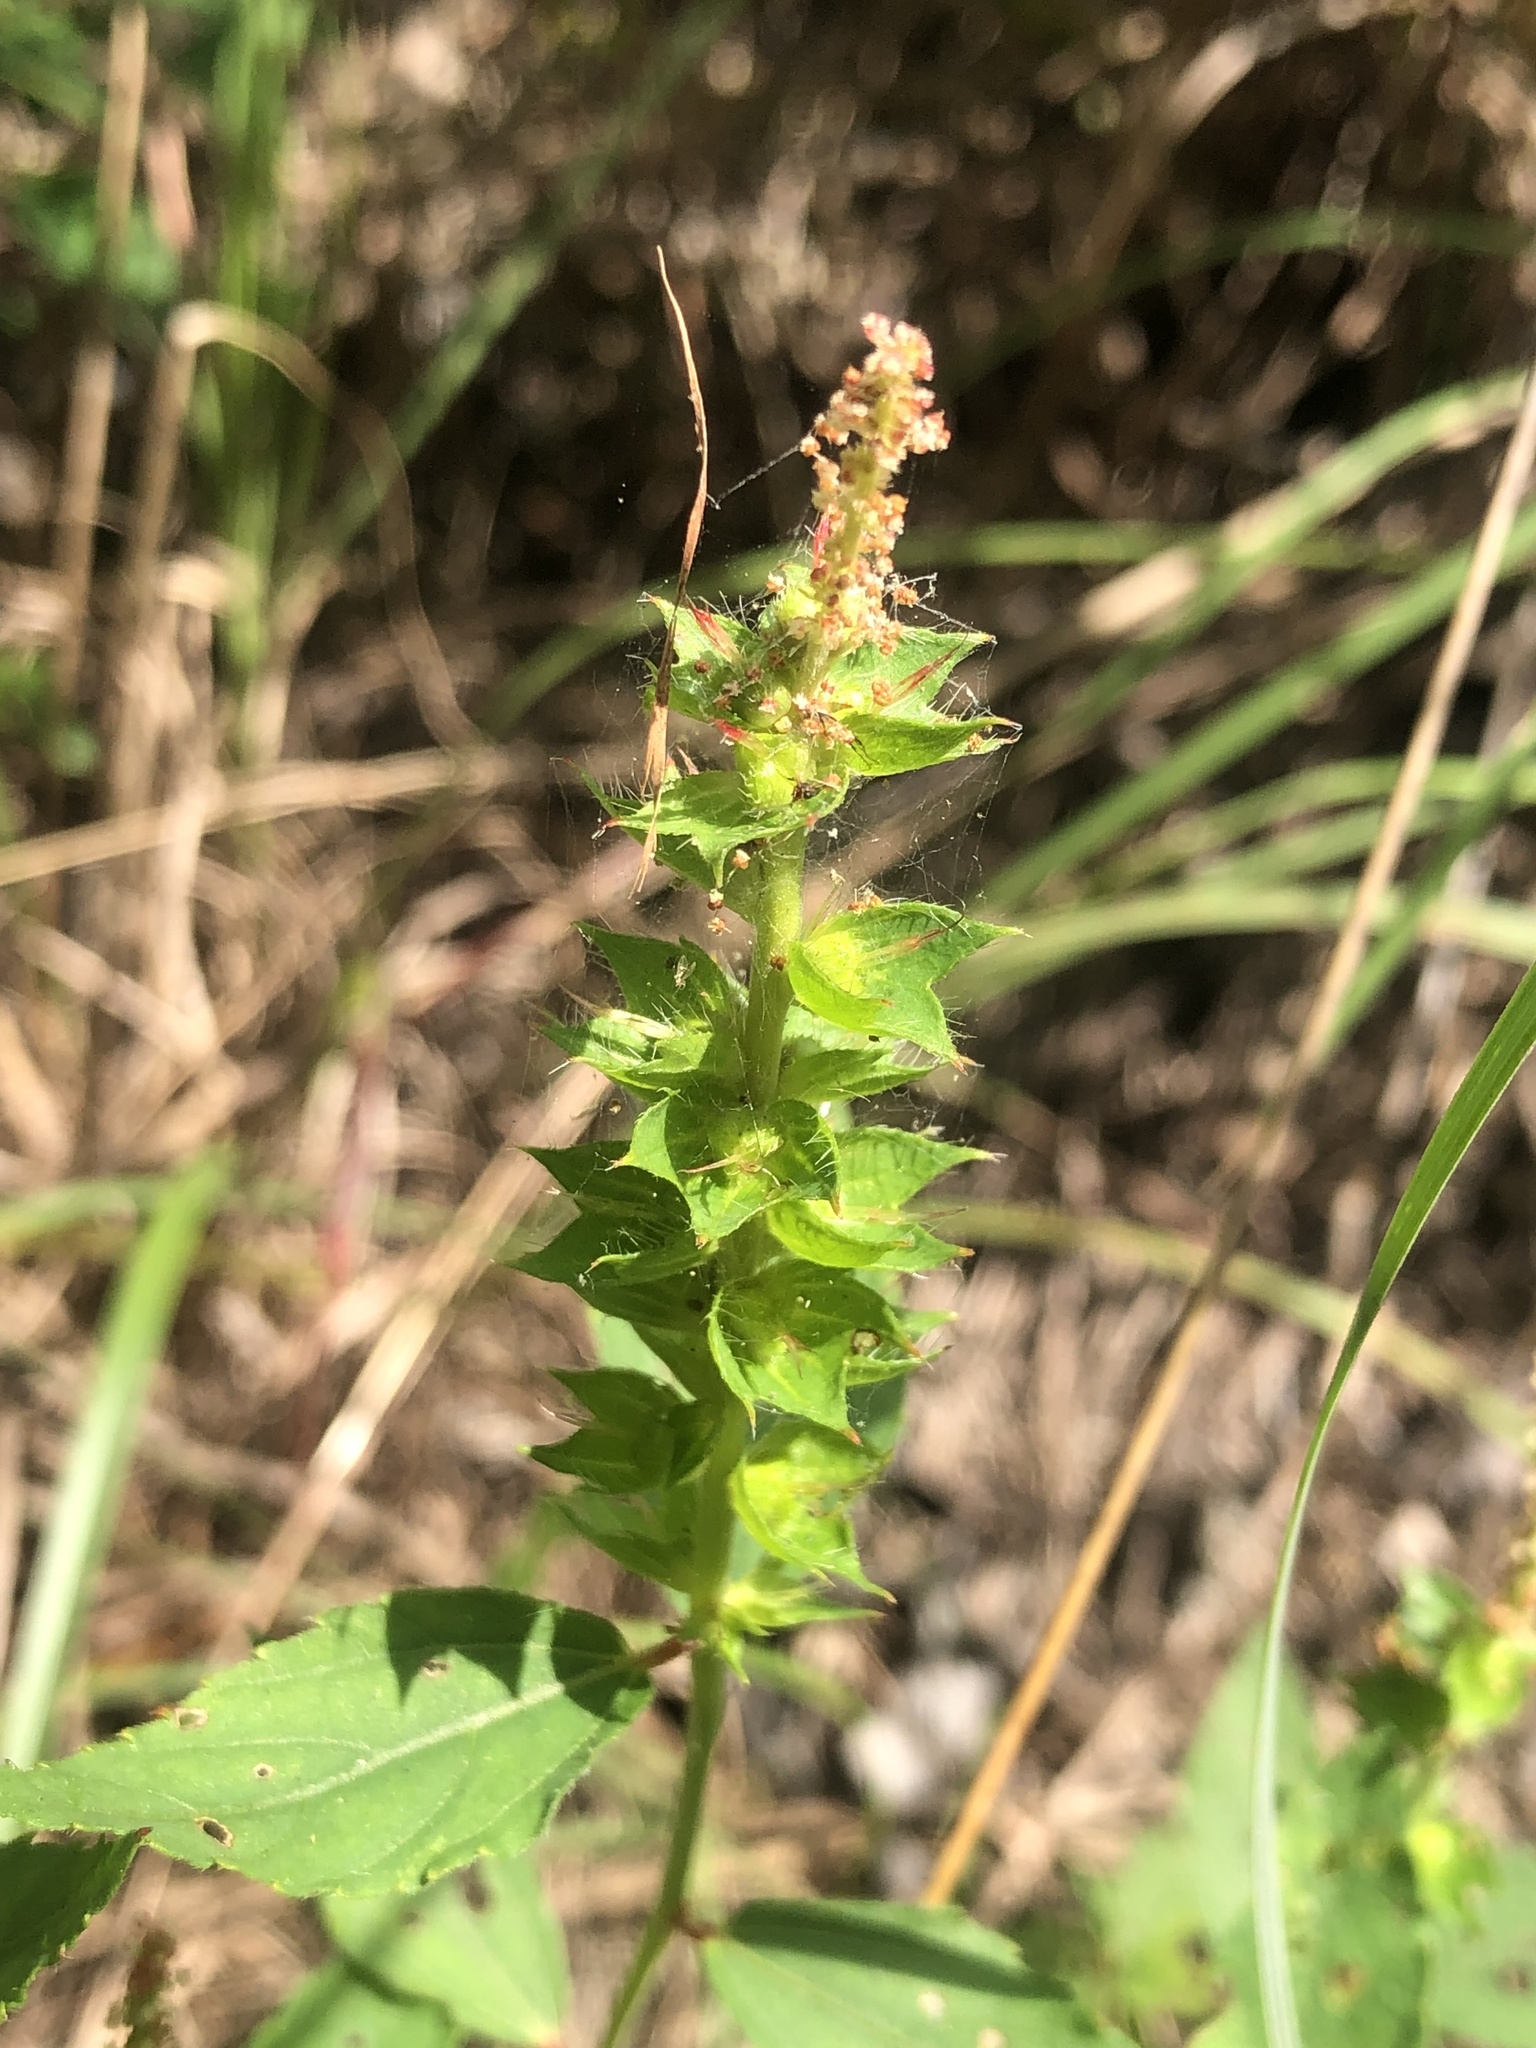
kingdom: Plantae
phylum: Tracheophyta
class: Magnoliopsida
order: Malpighiales
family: Euphorbiaceae
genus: Acalypha
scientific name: Acalypha phleoides
